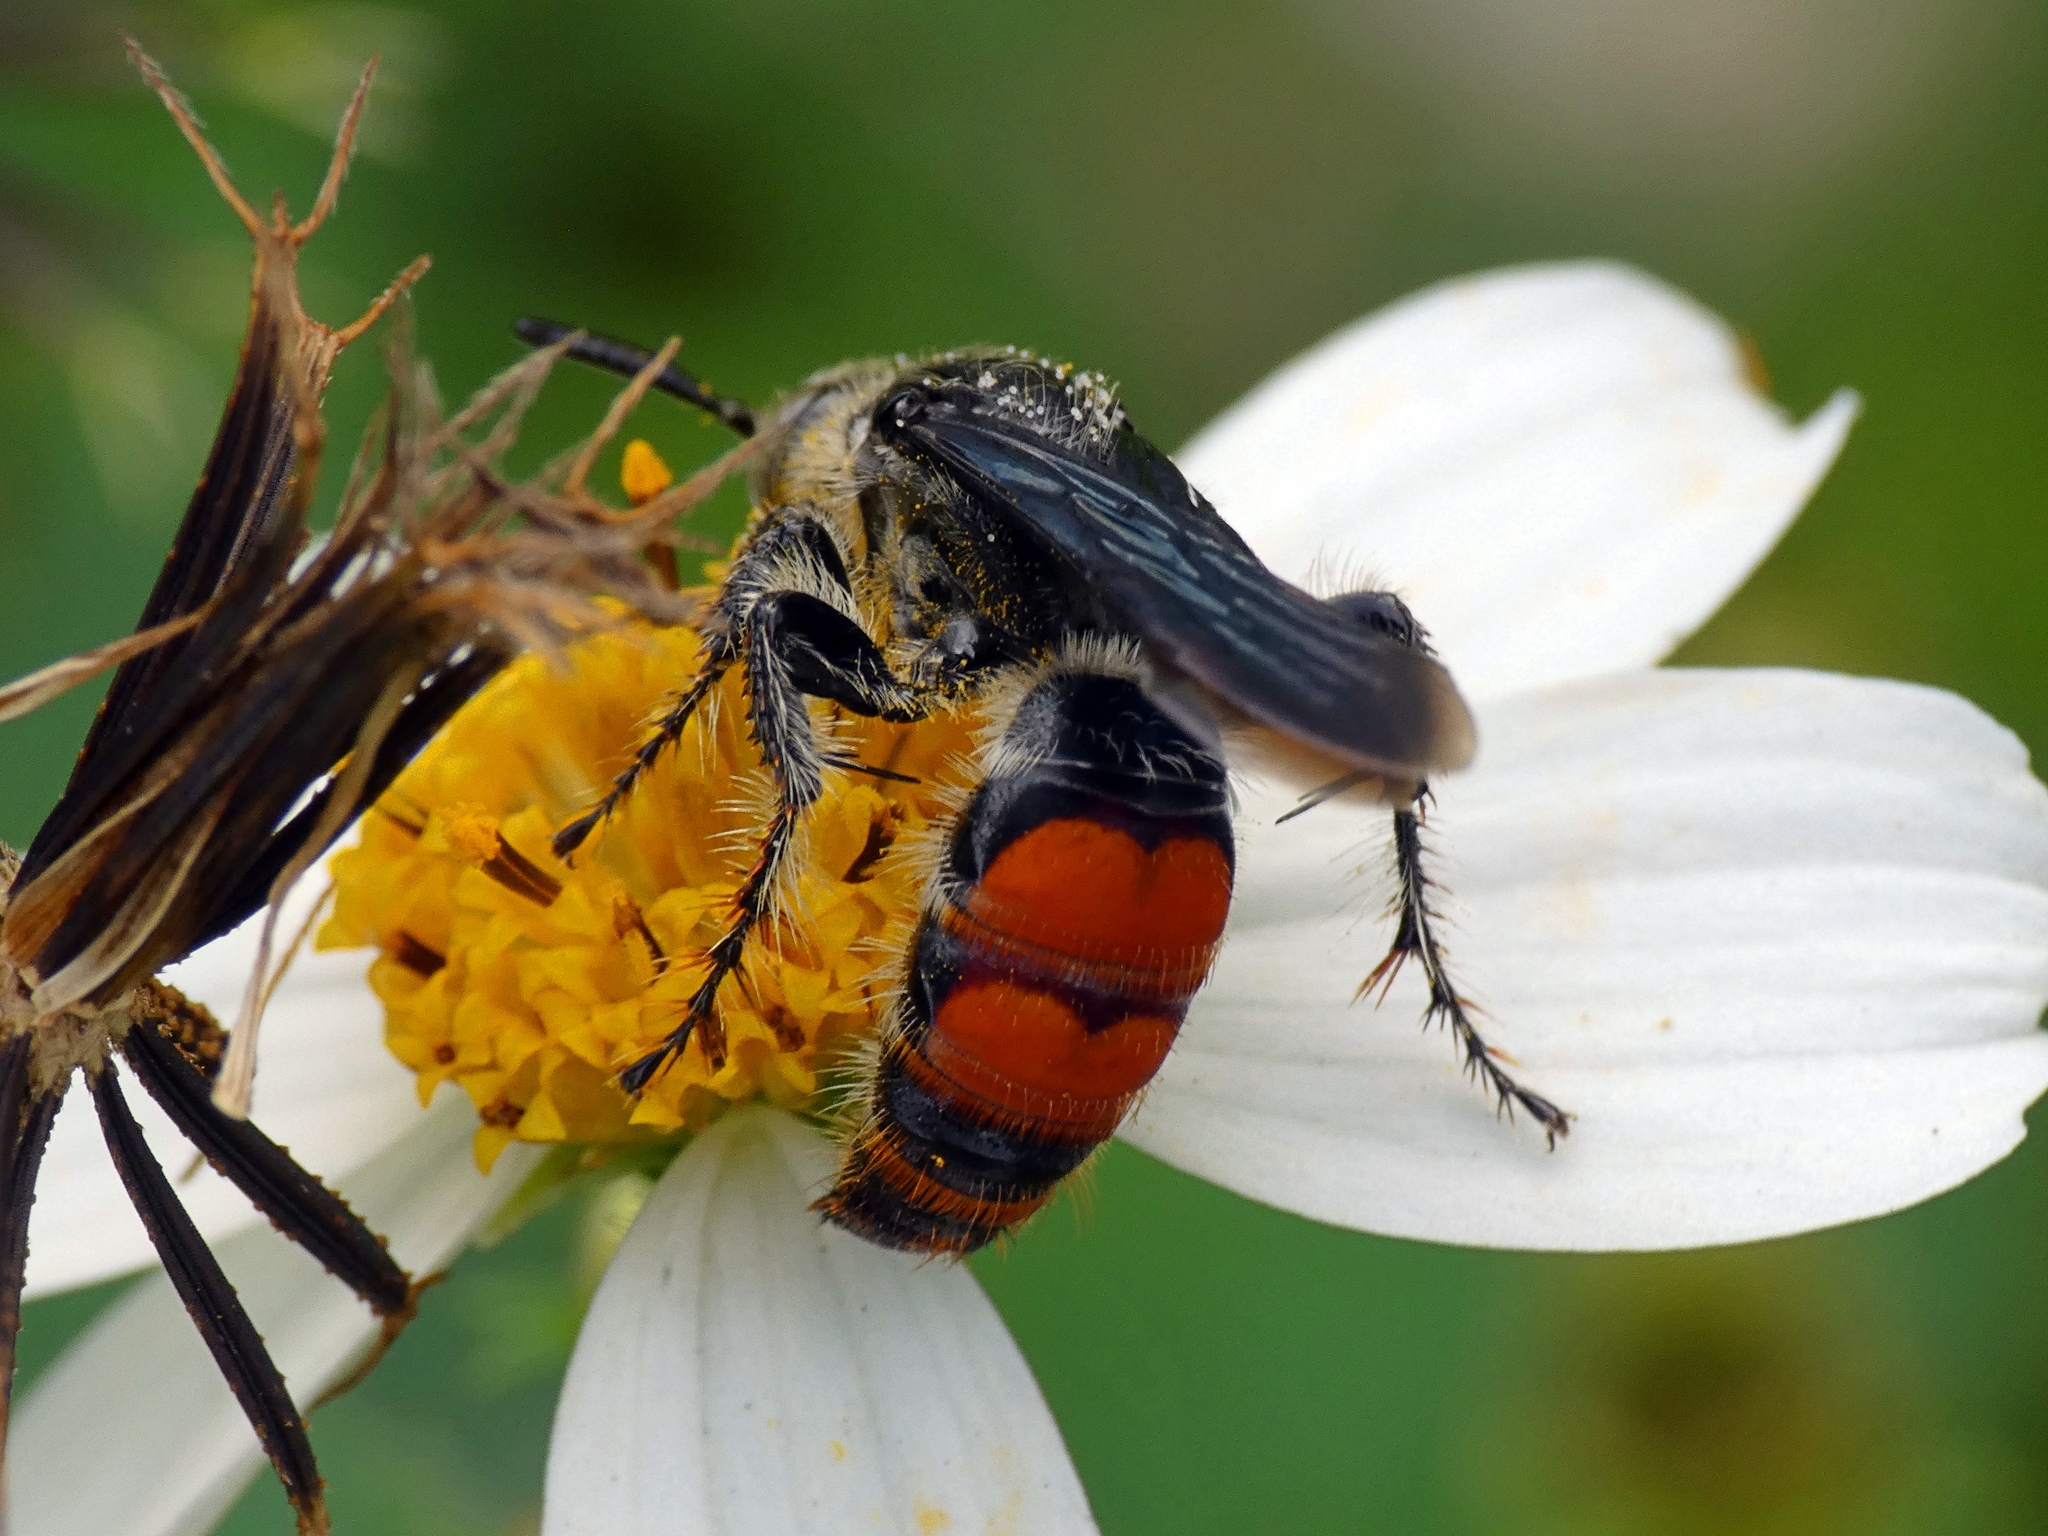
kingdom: Animalia
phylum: Arthropoda
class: Insecta
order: Hymenoptera
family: Scoliidae
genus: Dielis
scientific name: Dielis dorsata
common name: Scoliid wasp
